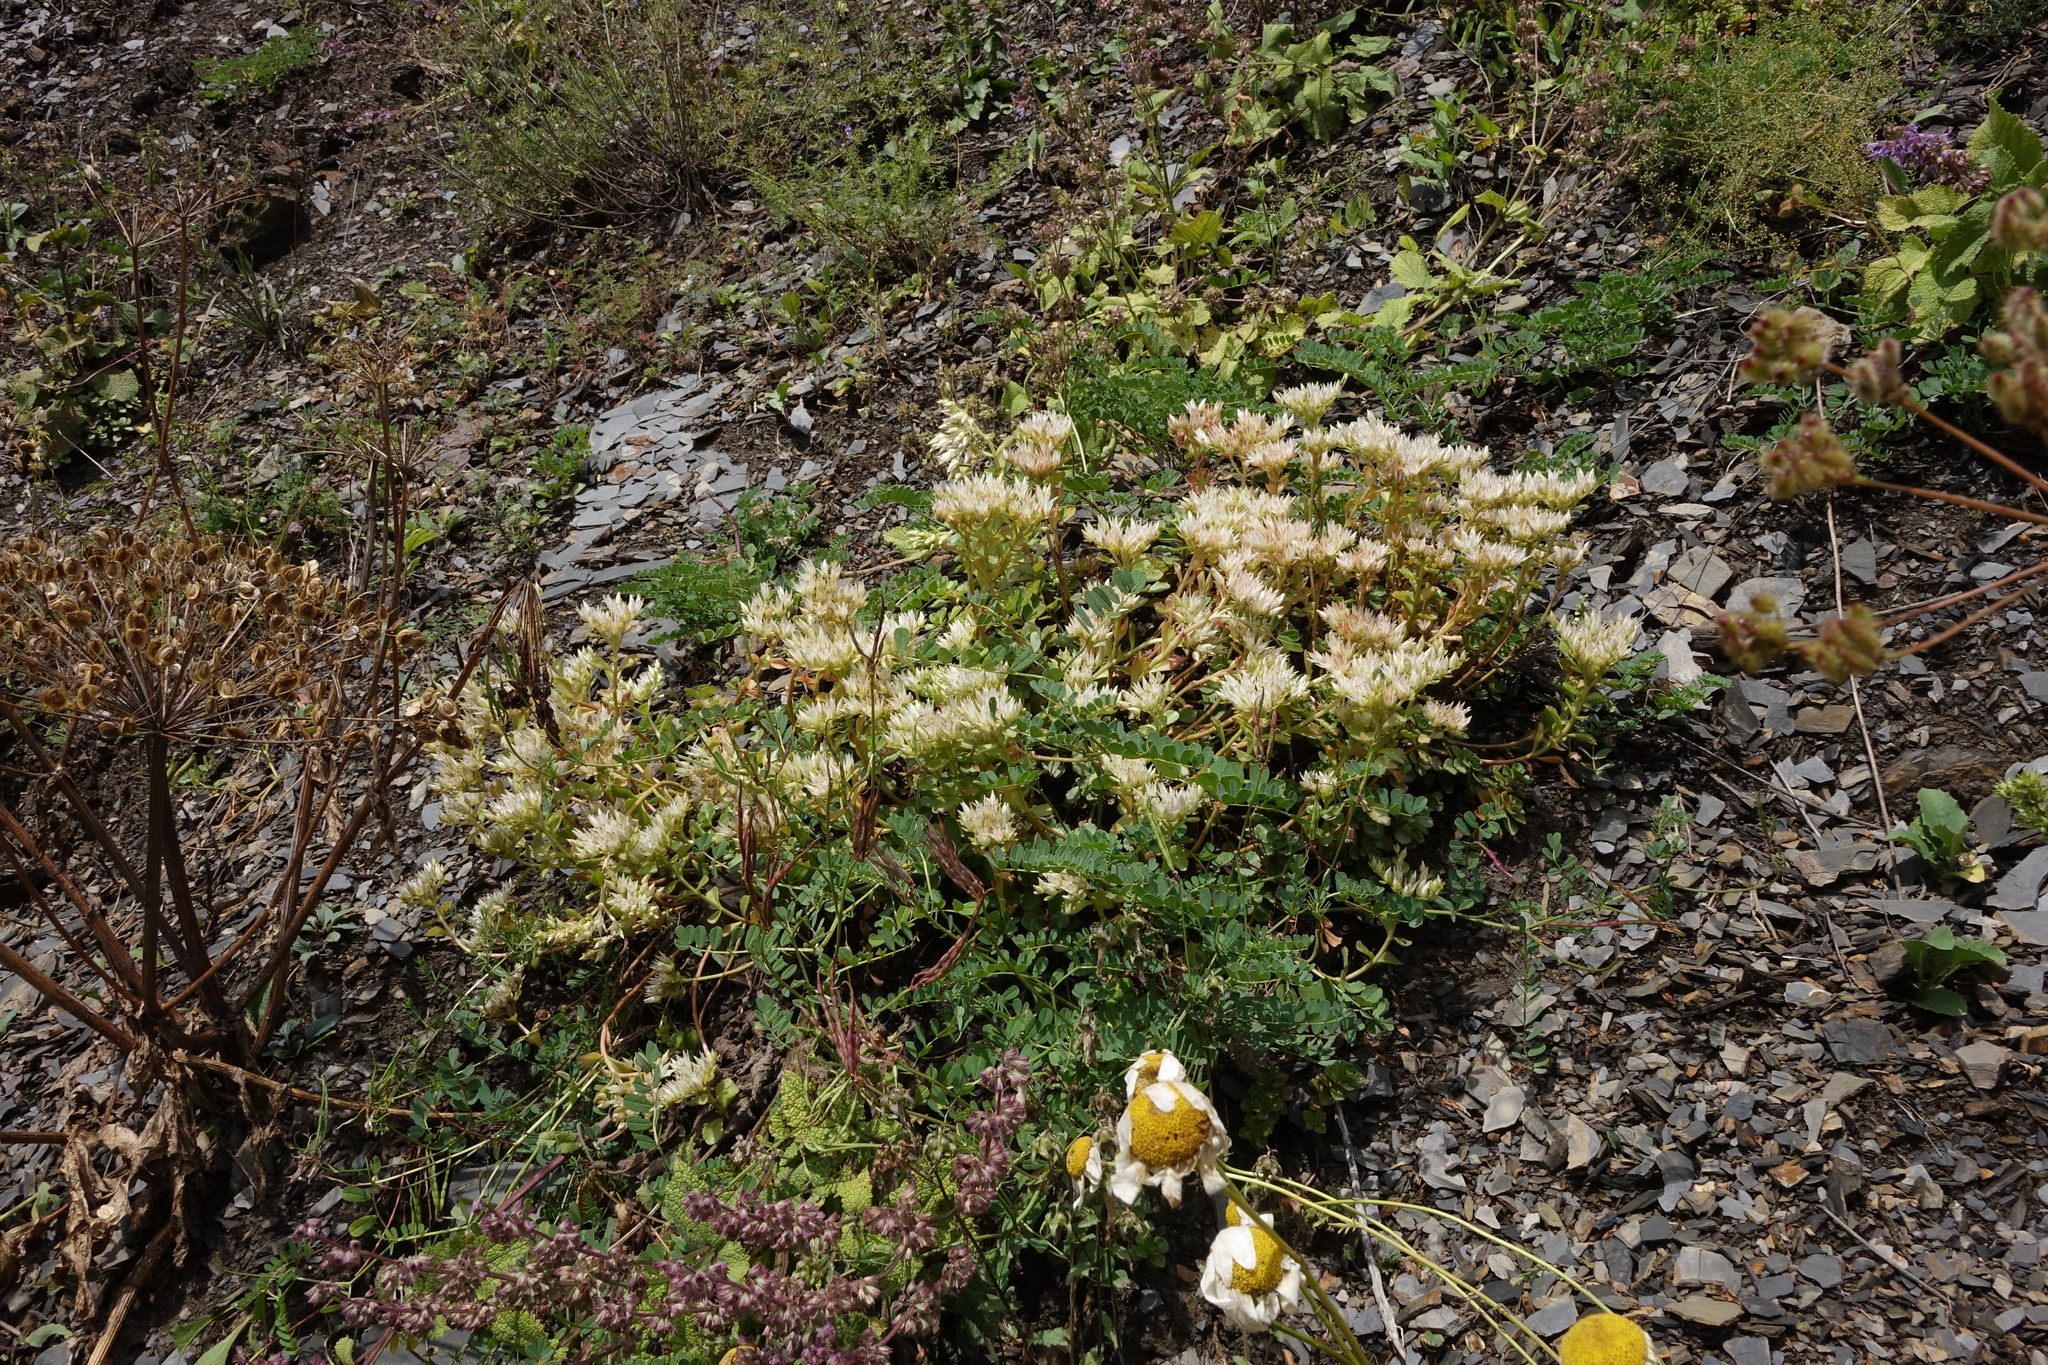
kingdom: Plantae
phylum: Tracheophyta
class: Magnoliopsida
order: Saxifragales
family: Crassulaceae
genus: Phedimus
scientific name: Phedimus spurius
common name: Caucasian stonecrop
